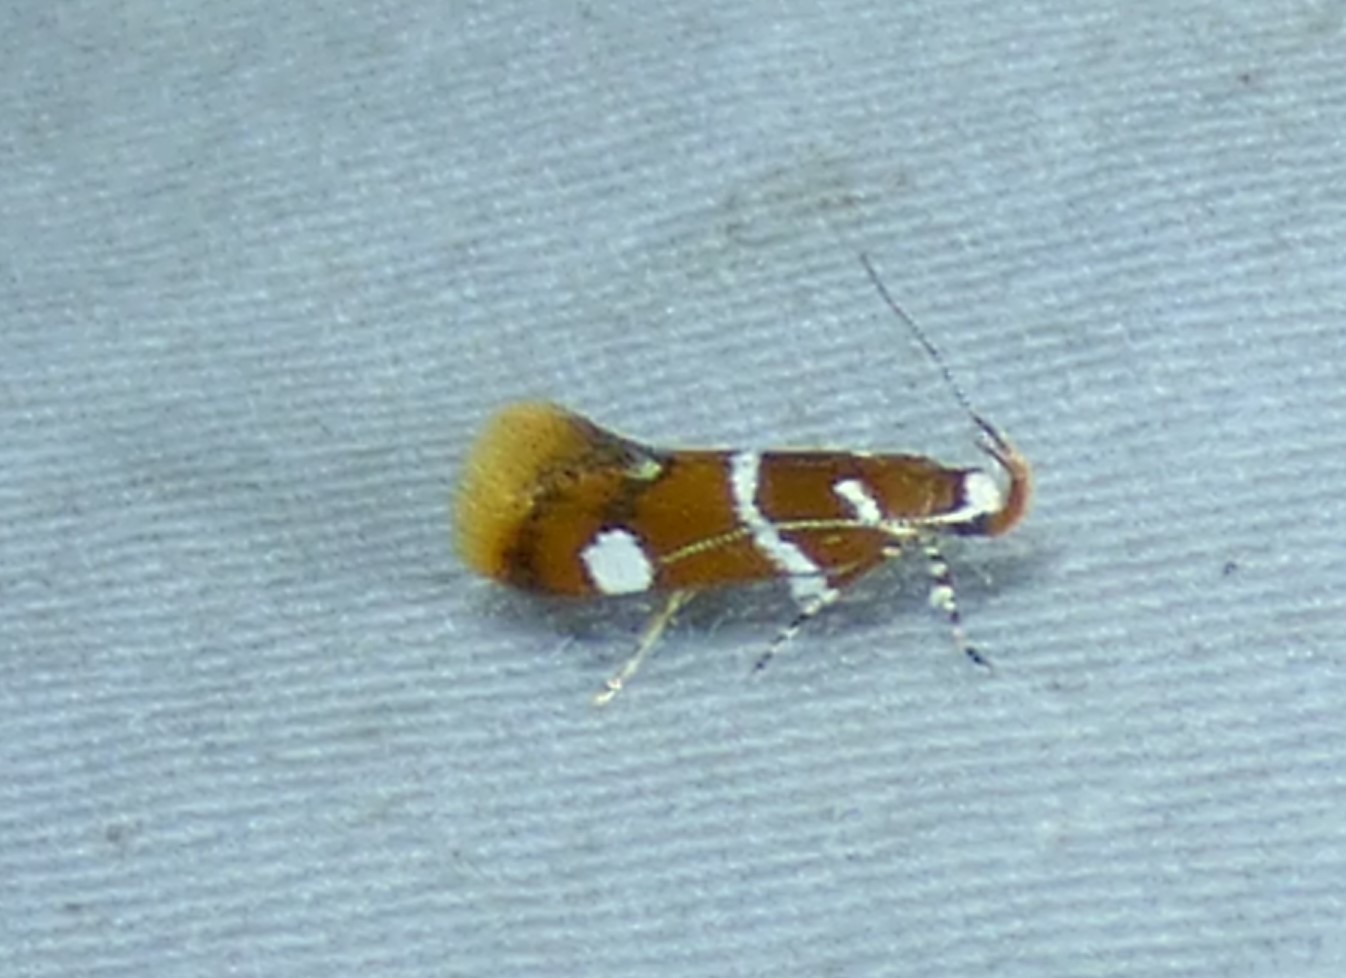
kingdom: Animalia
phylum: Arthropoda
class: Insecta
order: Lepidoptera
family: Oecophoridae
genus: Promalactis
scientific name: Promalactis suzukiella
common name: Moth
